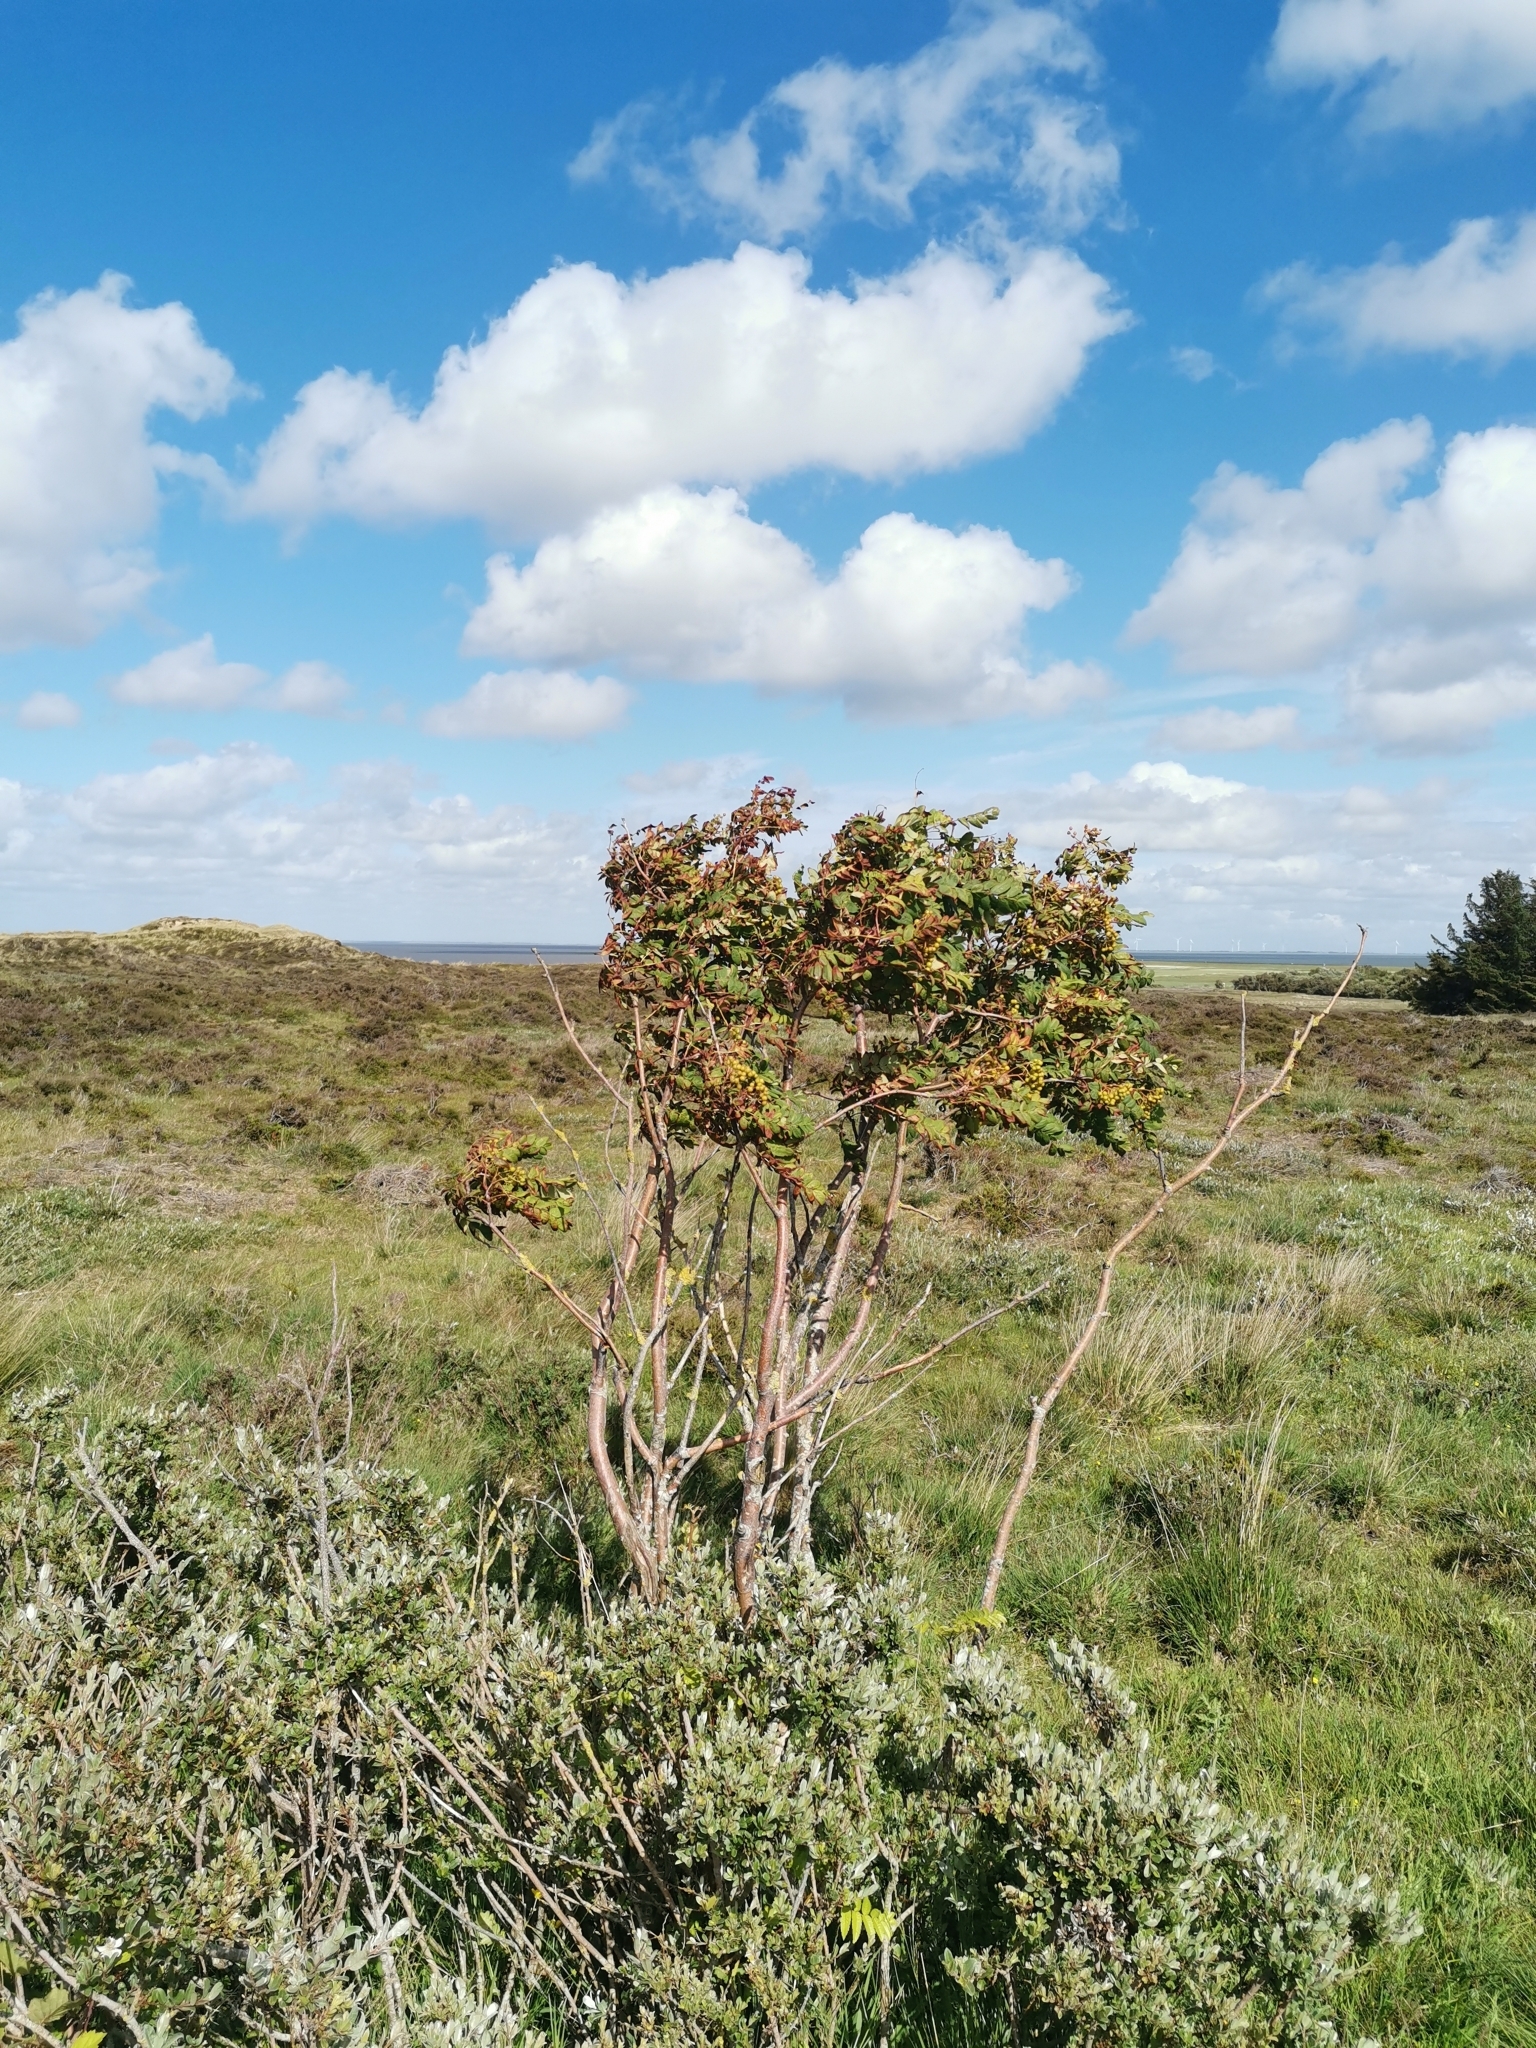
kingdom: Plantae
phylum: Tracheophyta
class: Magnoliopsida
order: Malpighiales
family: Salicaceae
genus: Salix
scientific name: Salix repens
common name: Creeping willow
